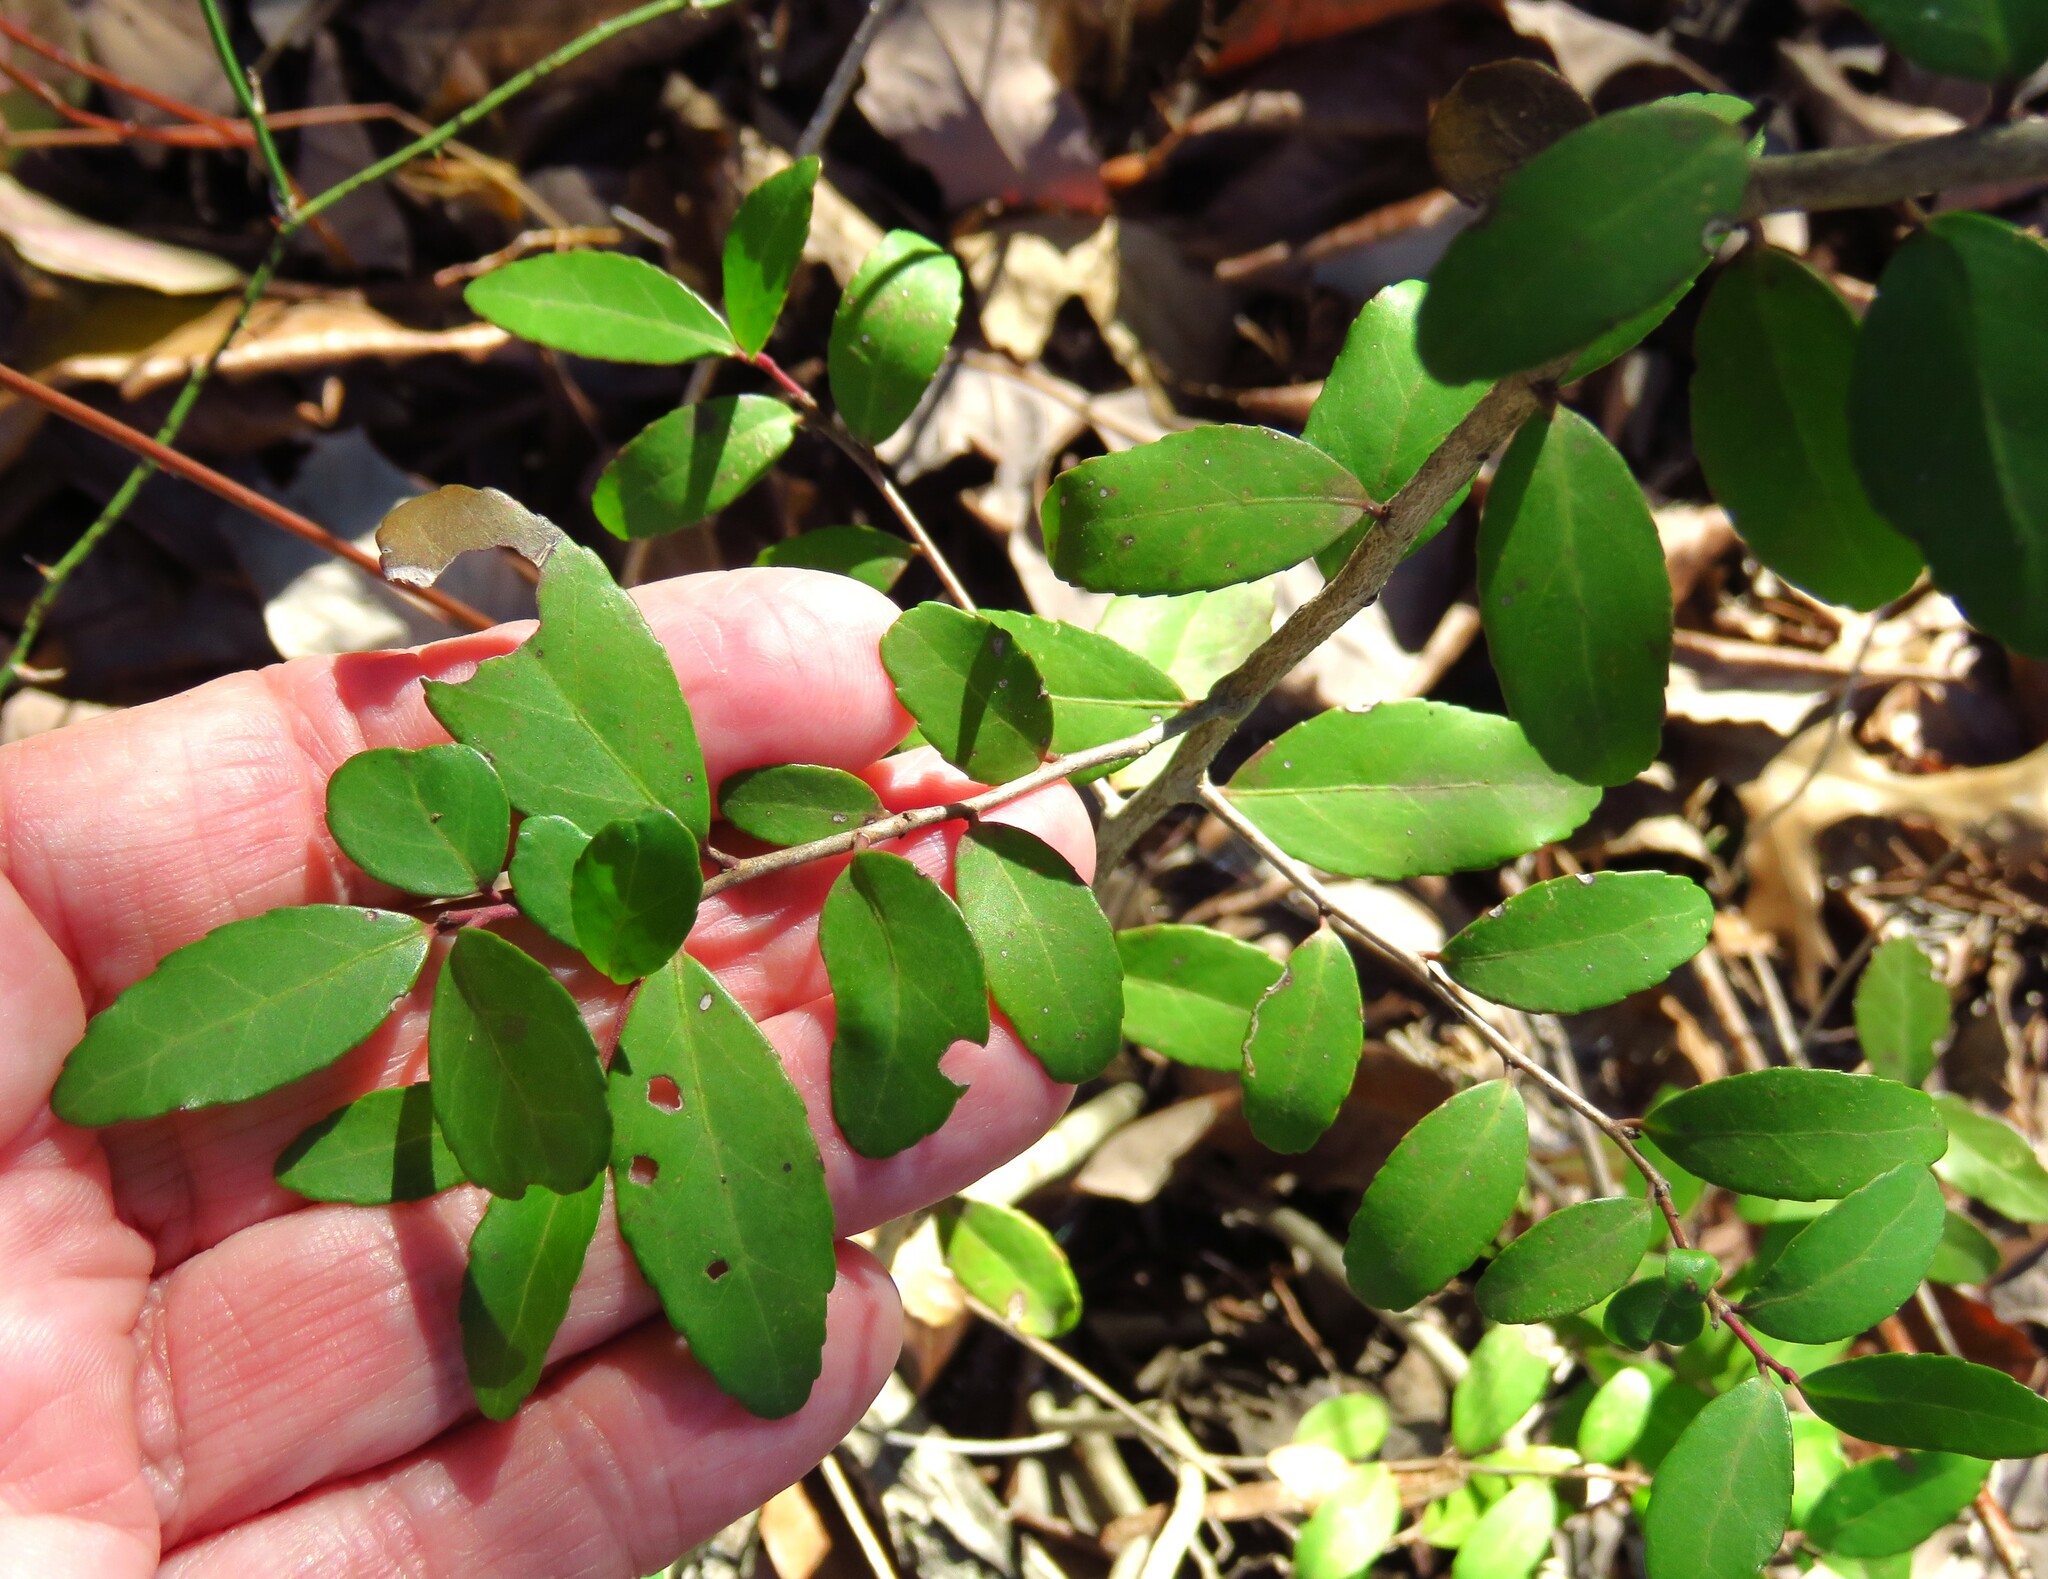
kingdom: Plantae
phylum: Tracheophyta
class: Magnoliopsida
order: Aquifoliales
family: Aquifoliaceae
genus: Ilex
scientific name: Ilex vomitoria
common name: Yaupon holly
